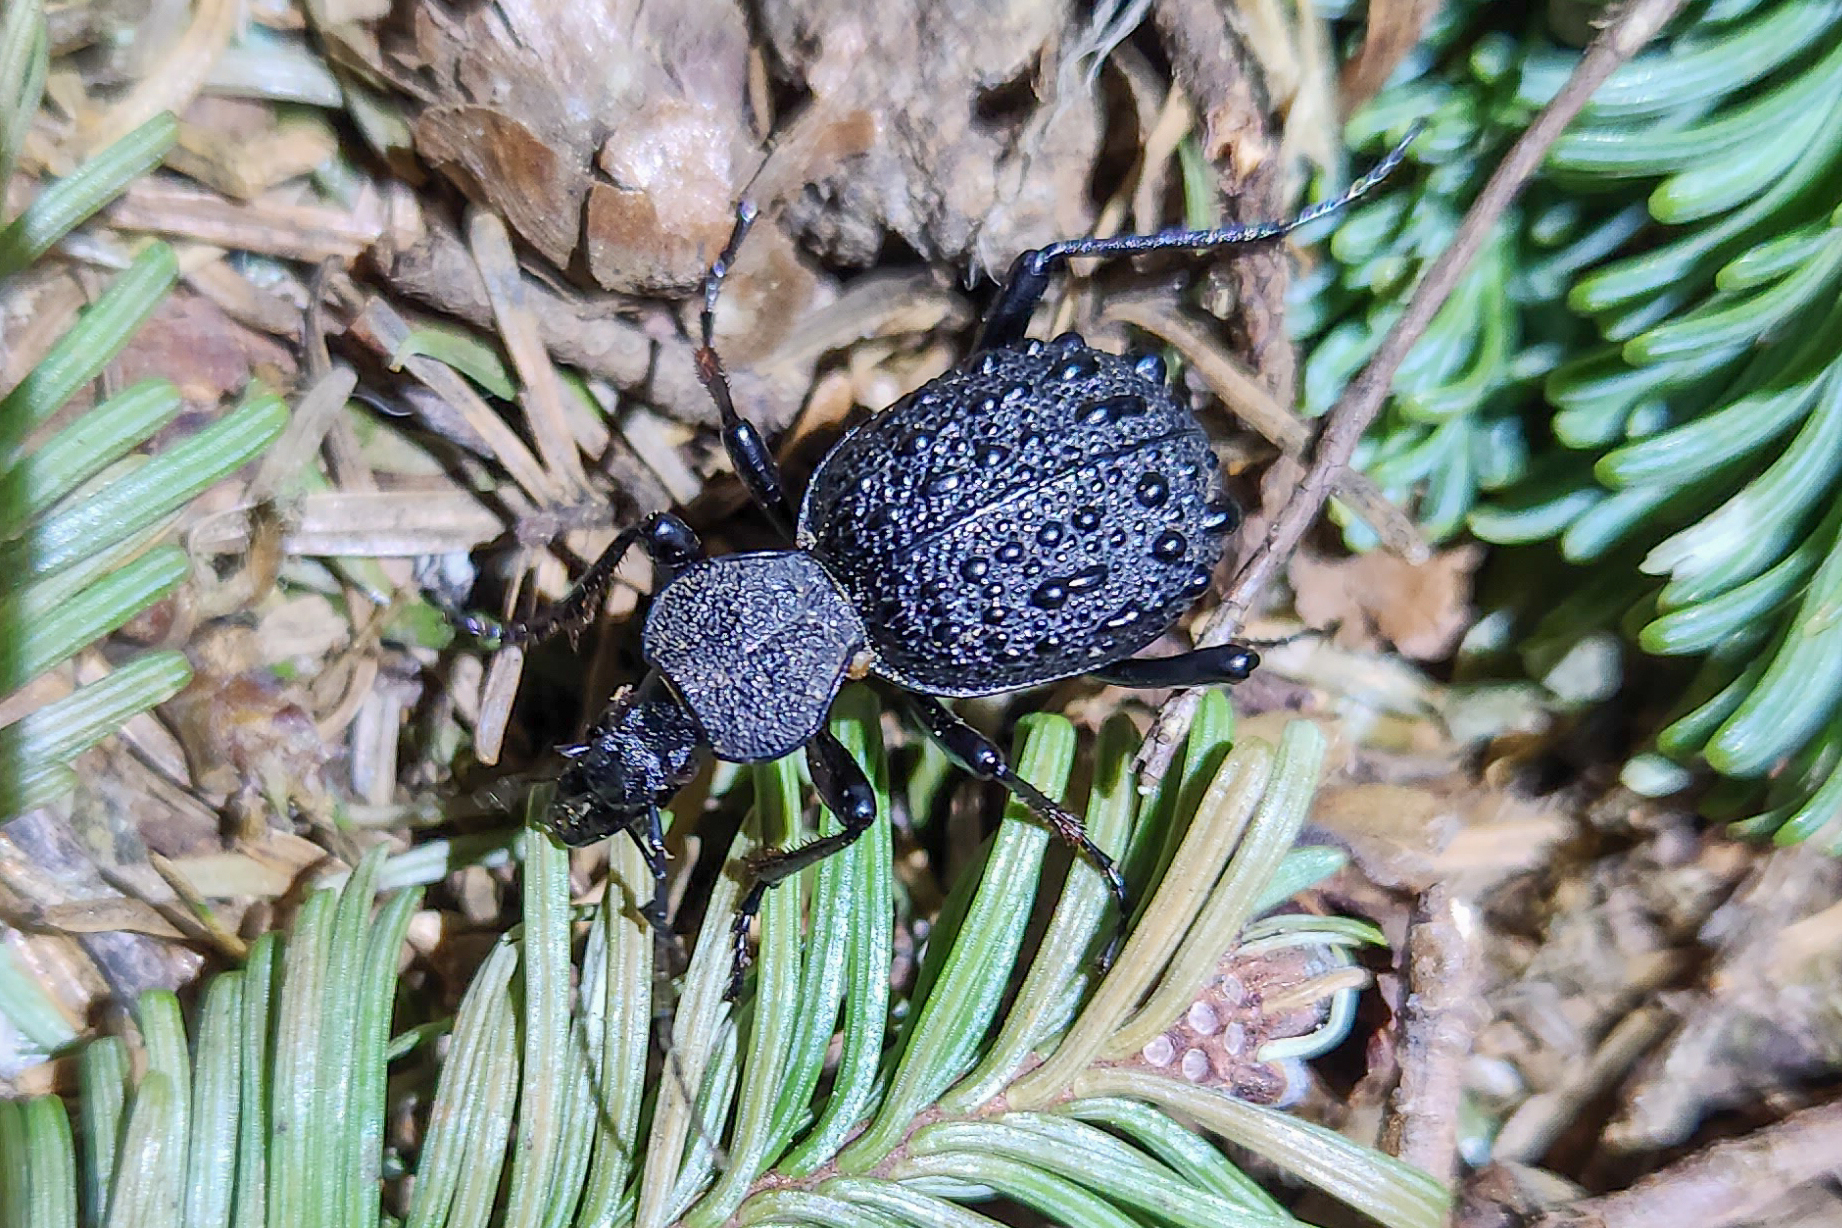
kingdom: Animalia
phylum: Arthropoda
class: Insecta
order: Coleoptera
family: Carabidae
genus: Cychrus
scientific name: Cychrus tuberculatus
